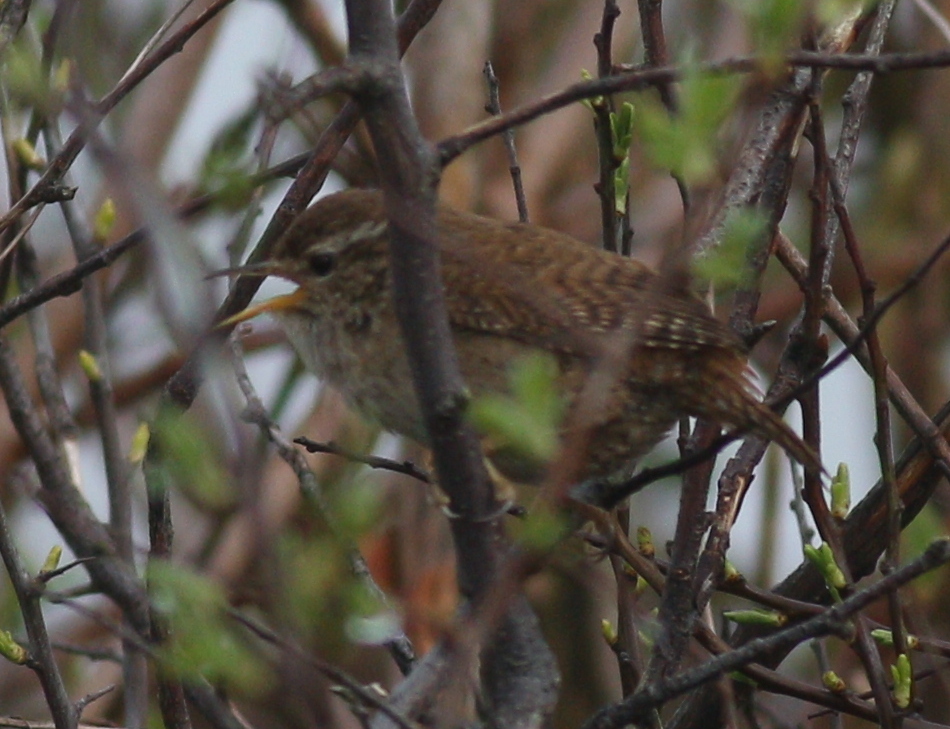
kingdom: Animalia
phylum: Chordata
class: Aves
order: Passeriformes
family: Troglodytidae
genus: Troglodytes
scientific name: Troglodytes troglodytes
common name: Eurasian wren
